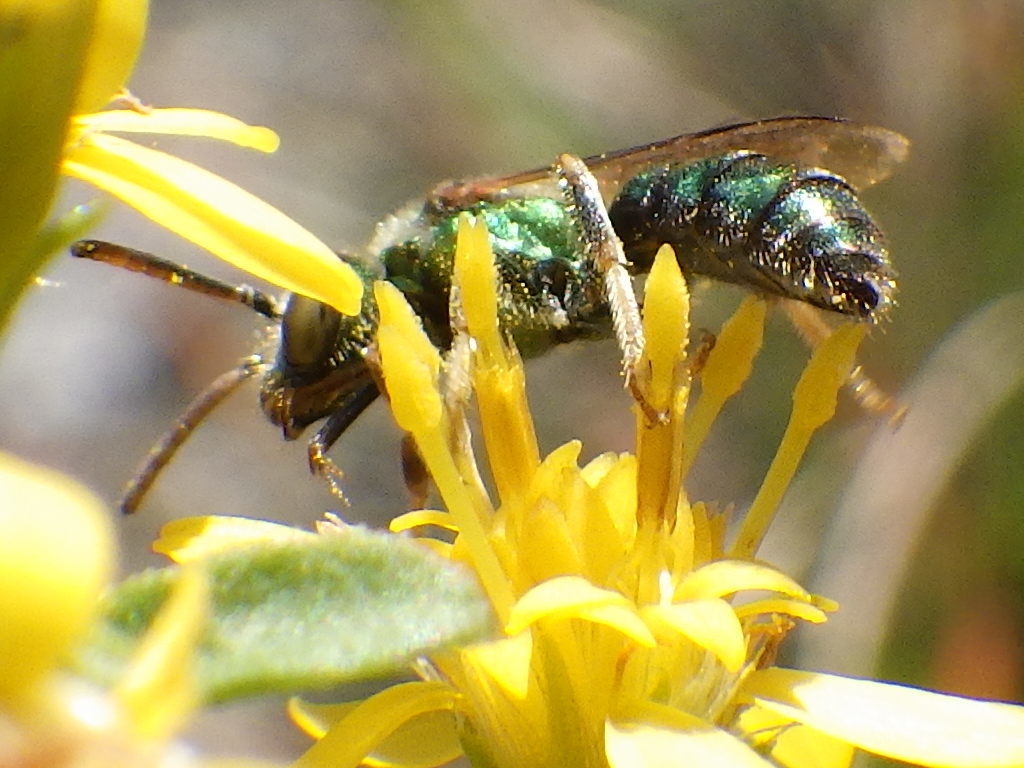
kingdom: Animalia
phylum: Arthropoda
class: Insecta
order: Hymenoptera
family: Halictidae
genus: Augochlorella
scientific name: Augochlorella aurata
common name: Golden sweat bee
